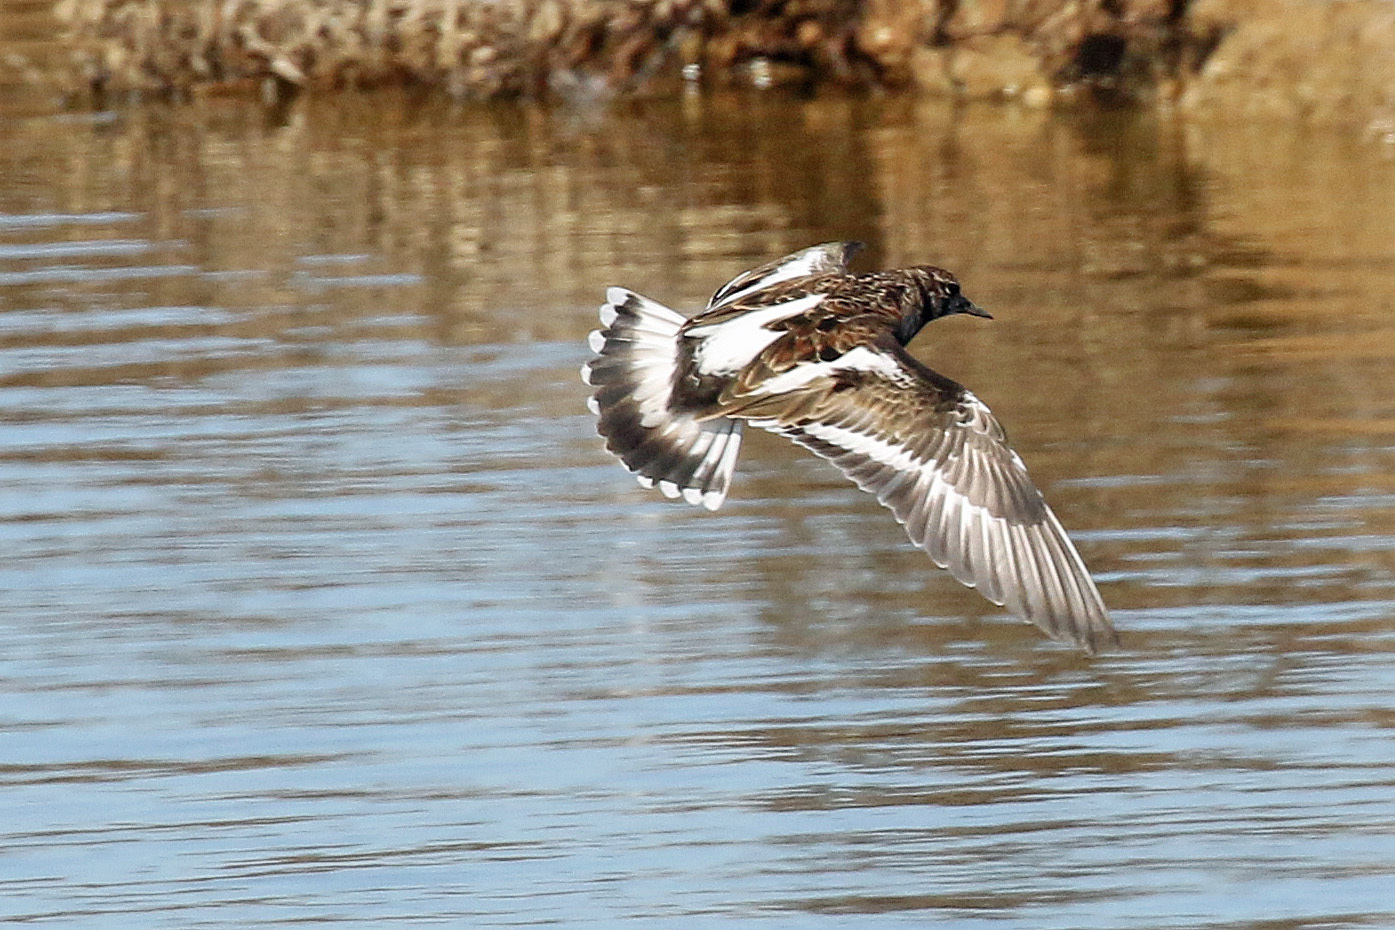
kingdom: Animalia
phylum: Chordata
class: Aves
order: Charadriiformes
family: Scolopacidae
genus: Arenaria
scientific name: Arenaria interpres
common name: Ruddy turnstone
